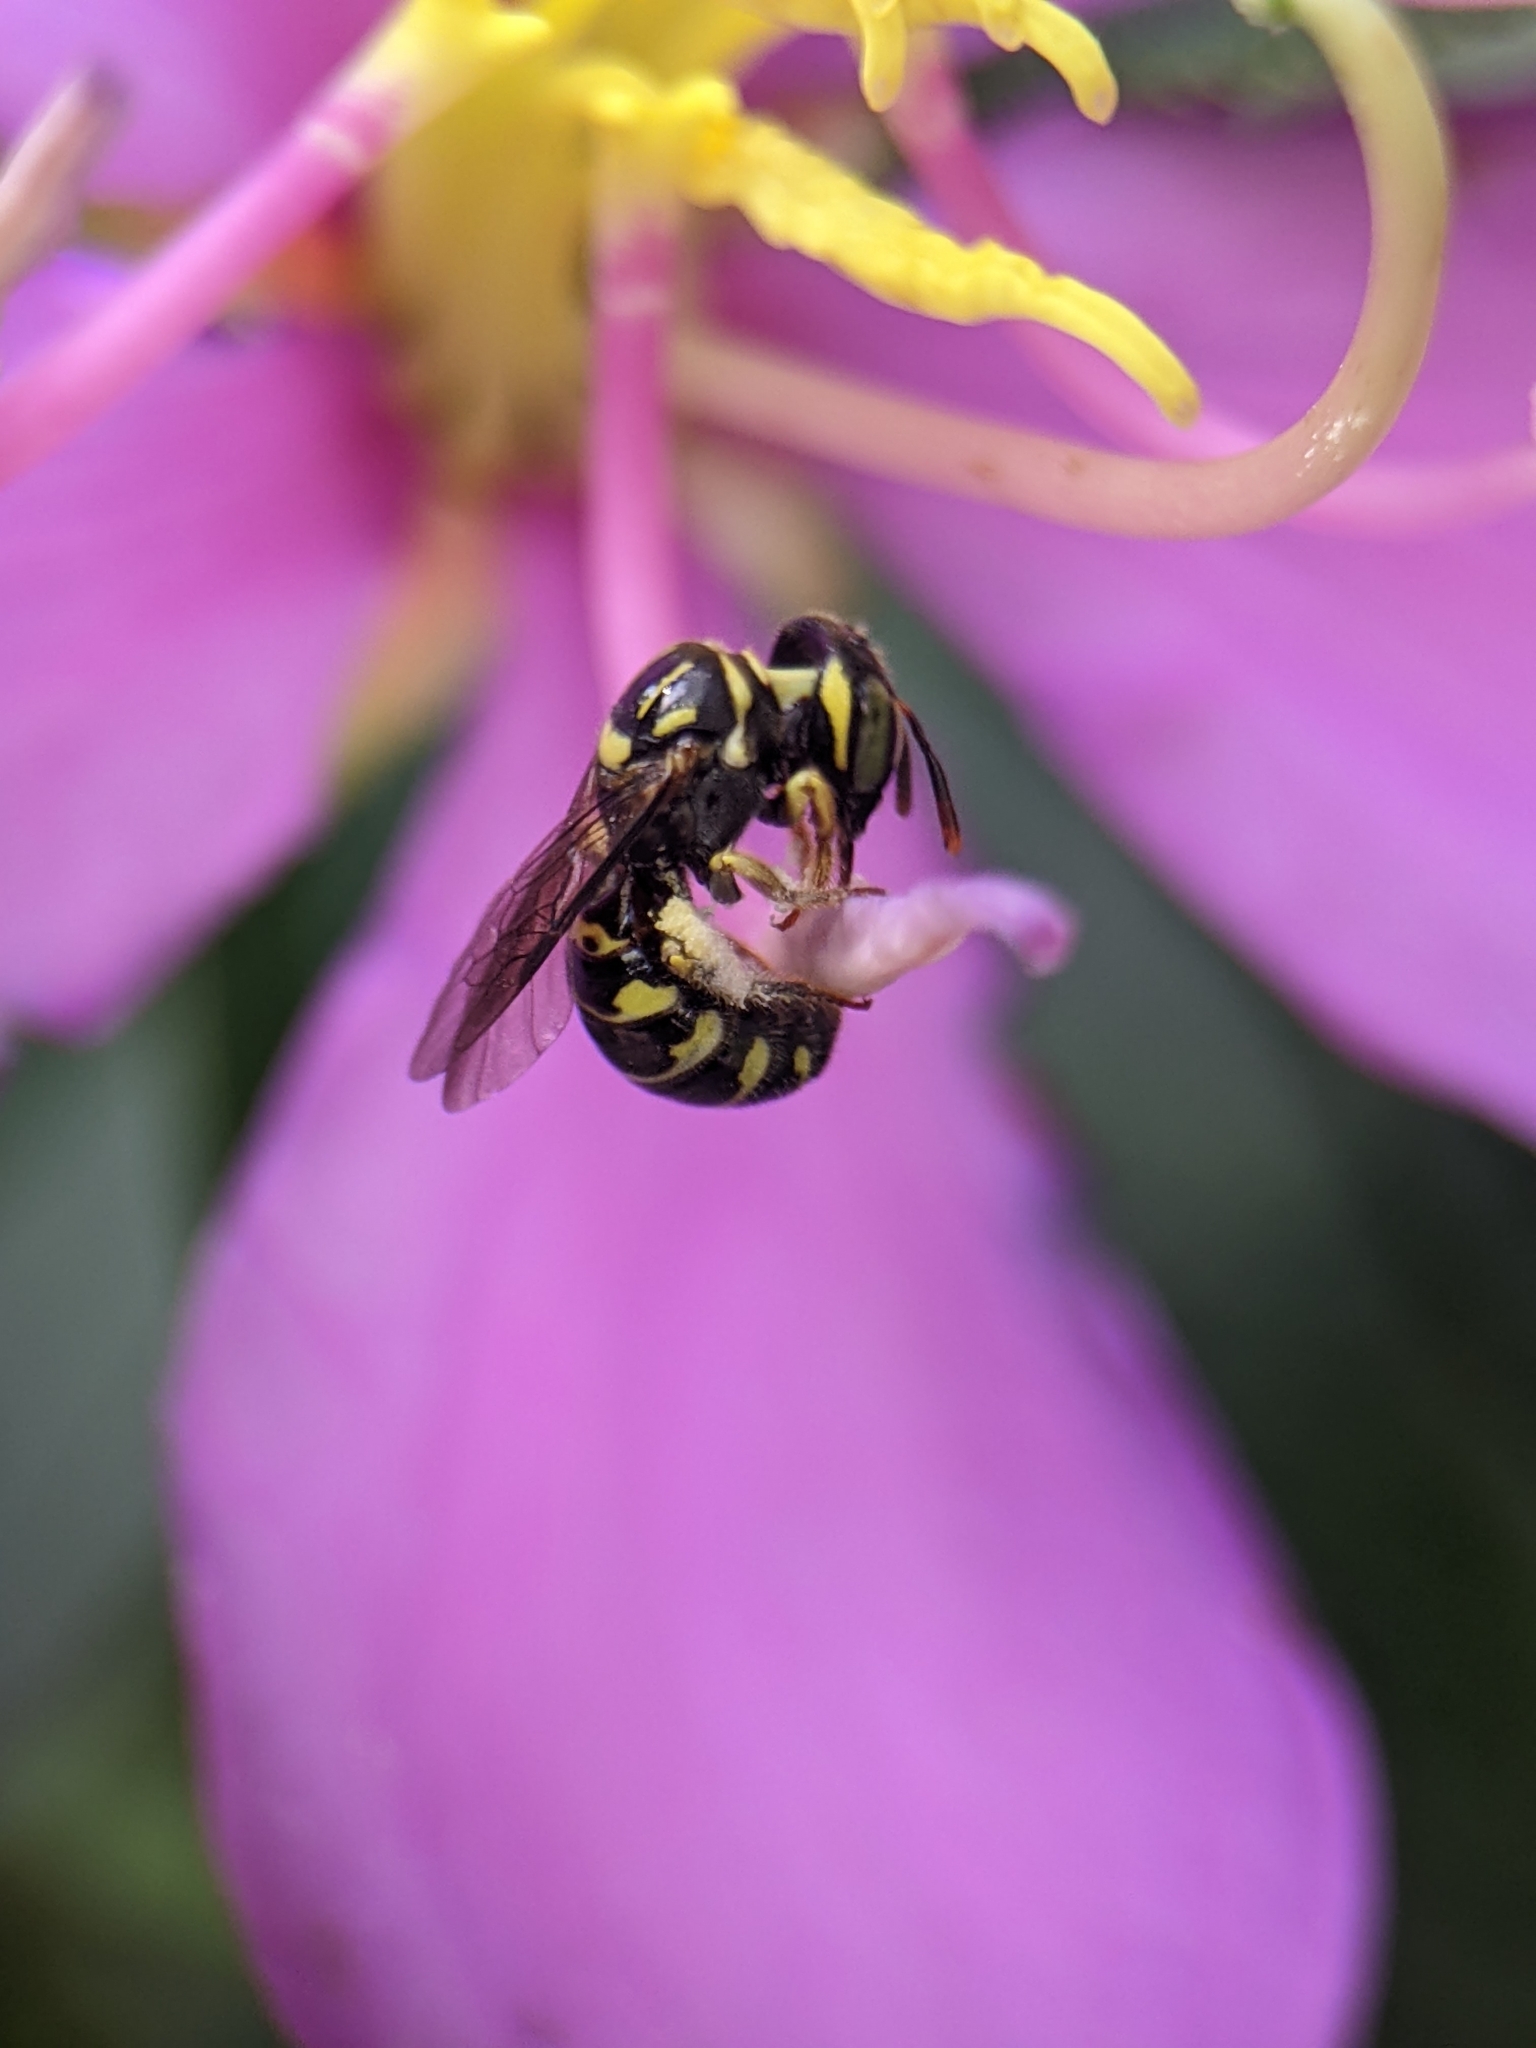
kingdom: Animalia
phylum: Arthropoda
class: Insecta
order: Hymenoptera
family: Apidae
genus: Ceratina
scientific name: Ceratina collusor
